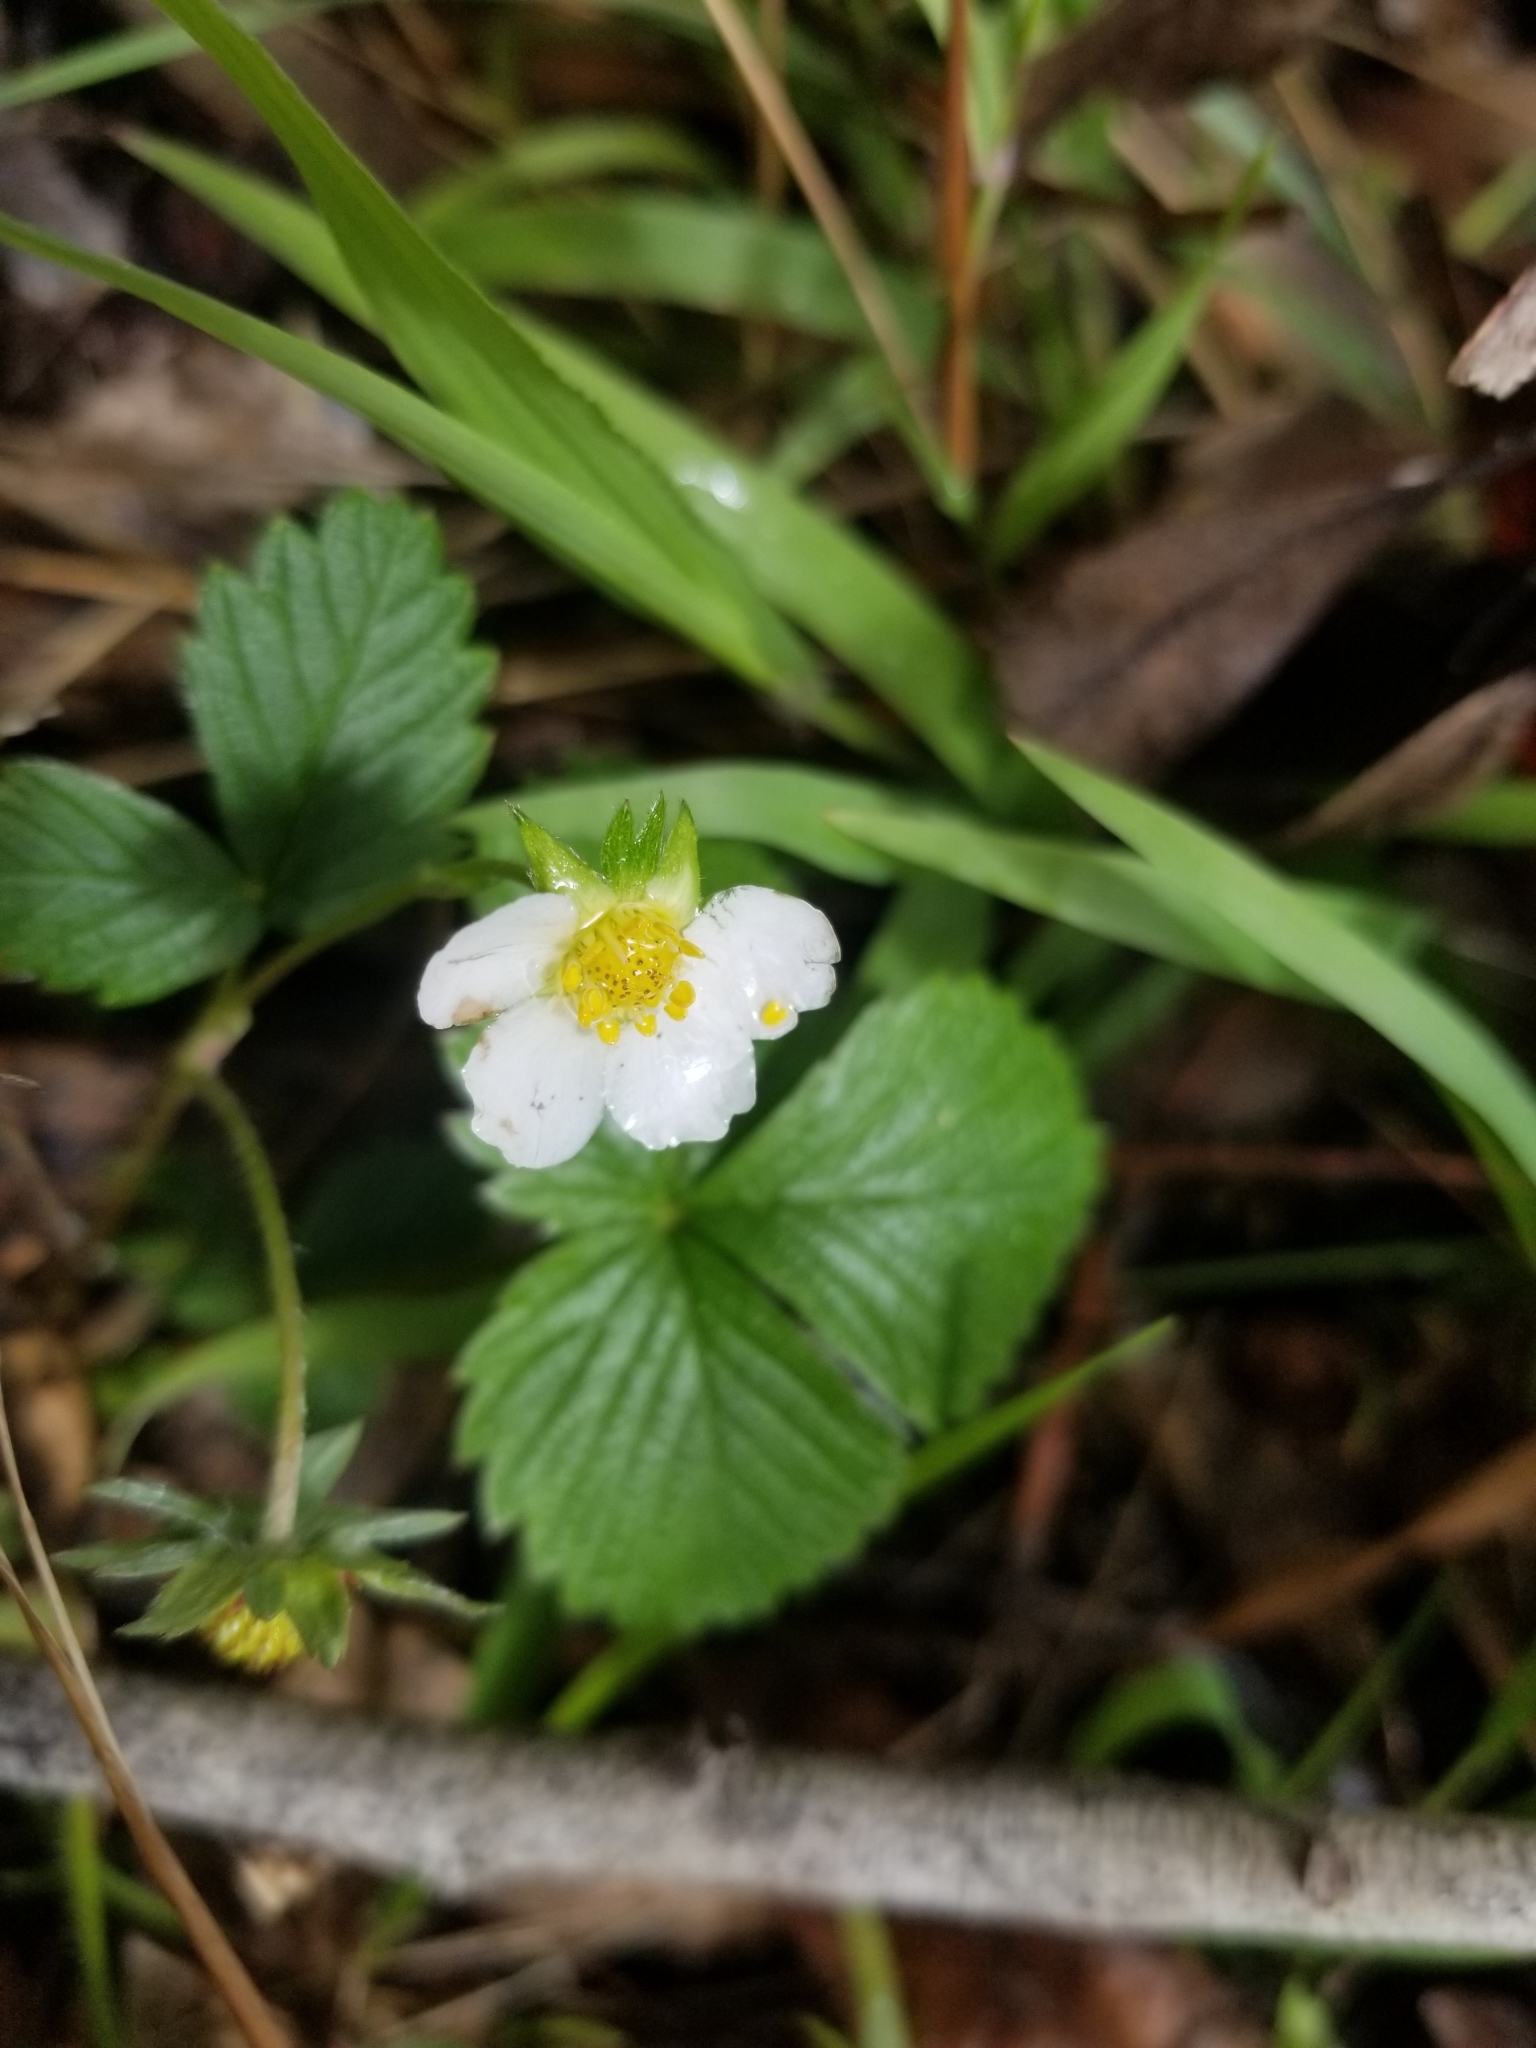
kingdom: Plantae
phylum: Tracheophyta
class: Magnoliopsida
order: Rosales
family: Rosaceae
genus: Fragaria
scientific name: Fragaria vesca
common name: Wild strawberry
